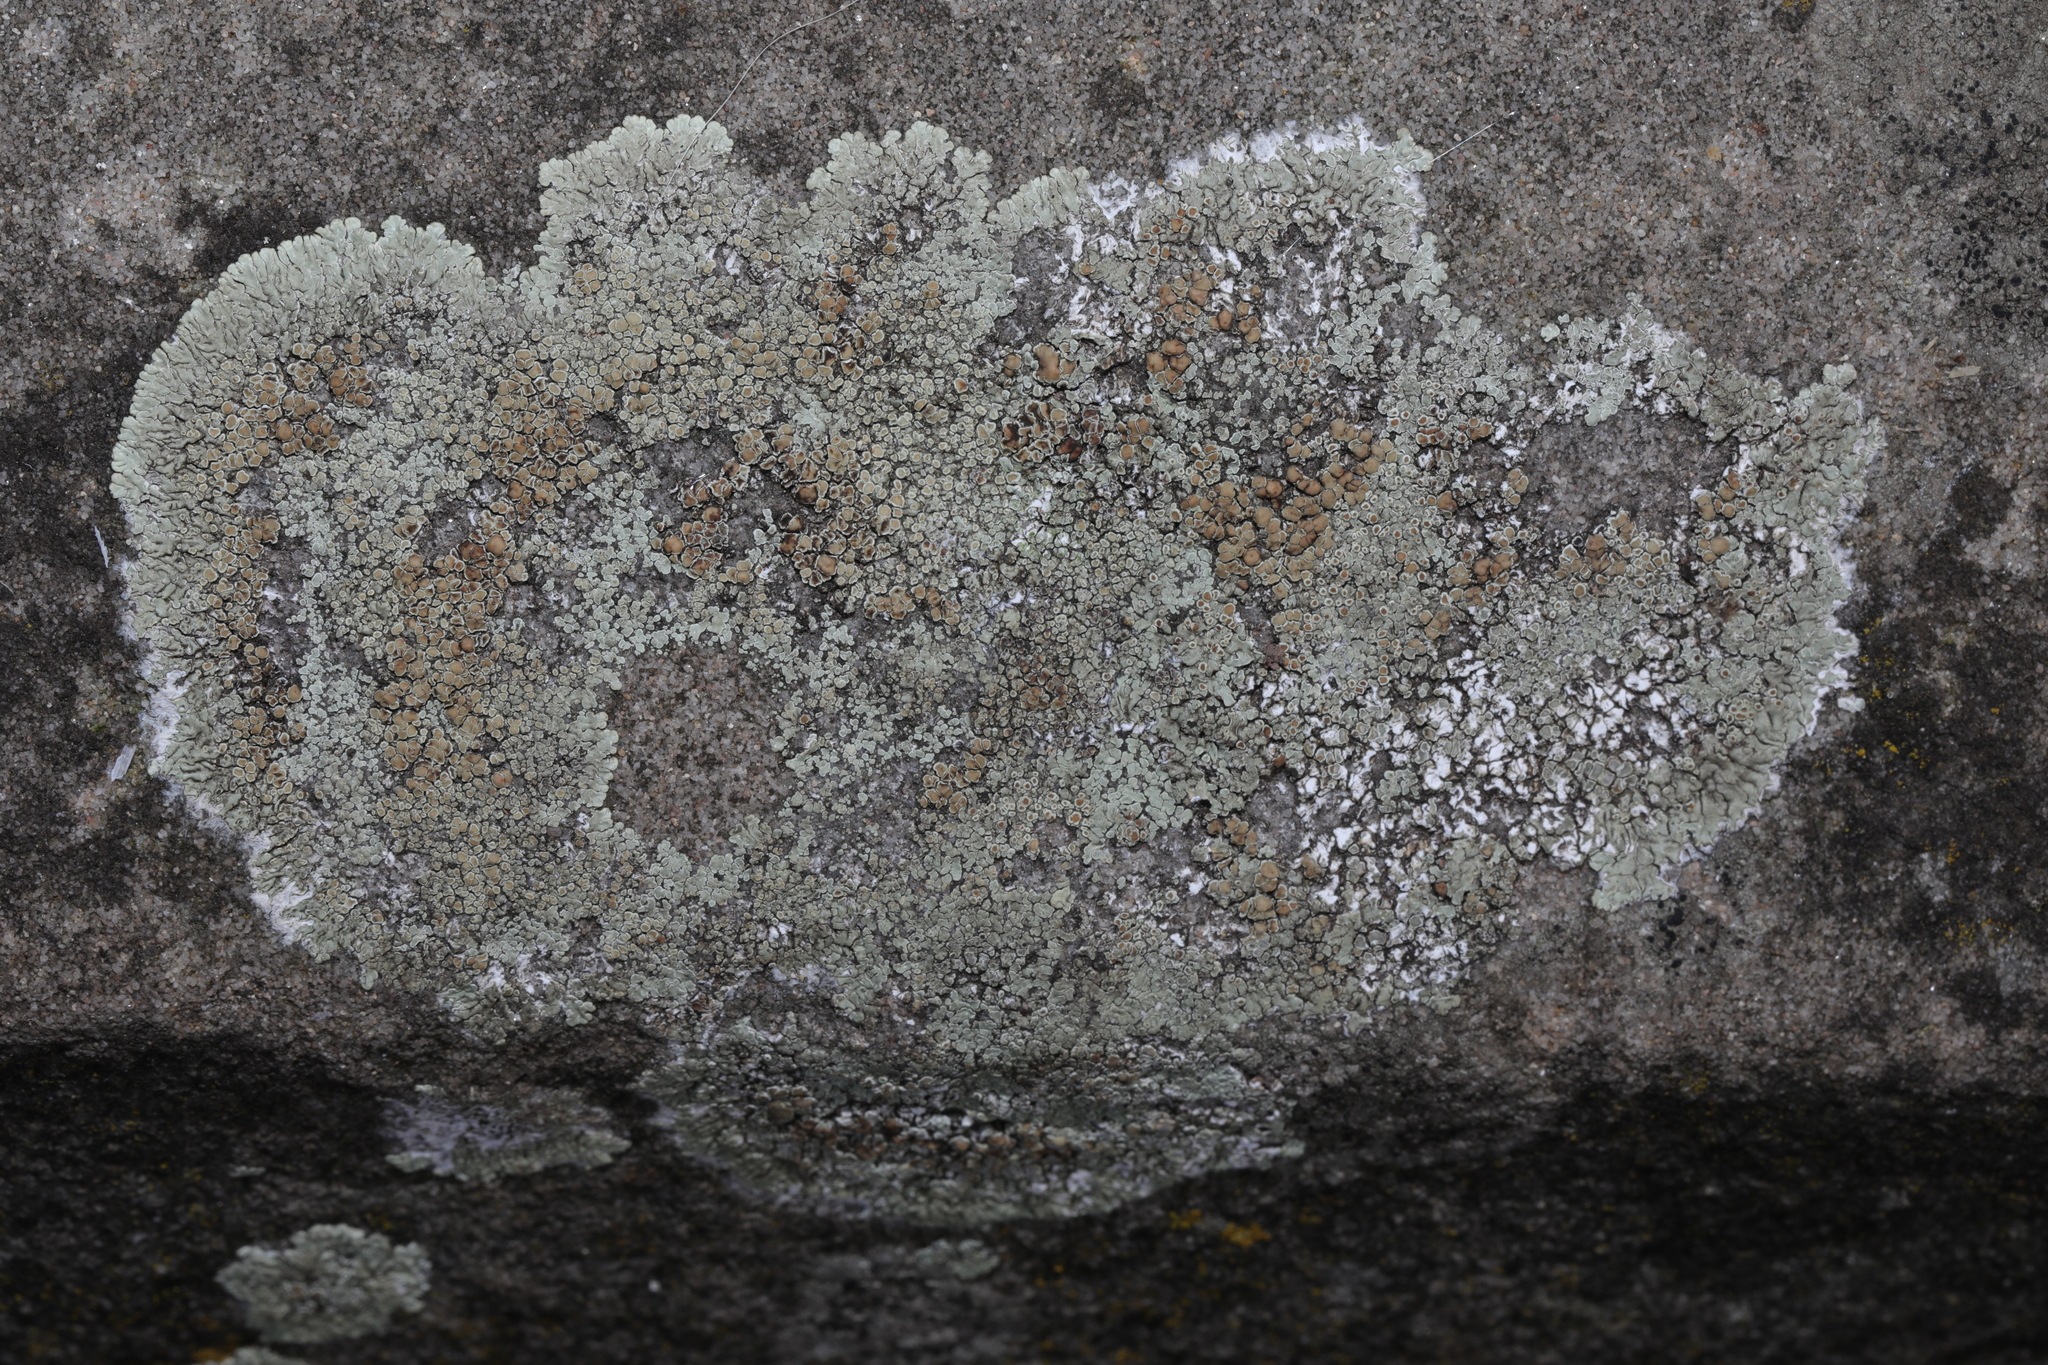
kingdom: Fungi
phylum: Ascomycota
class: Lecanoromycetes
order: Lecanorales
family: Lecanoraceae
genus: Protoparmeliopsis
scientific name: Protoparmeliopsis muralis
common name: Stonewall rim lichen
